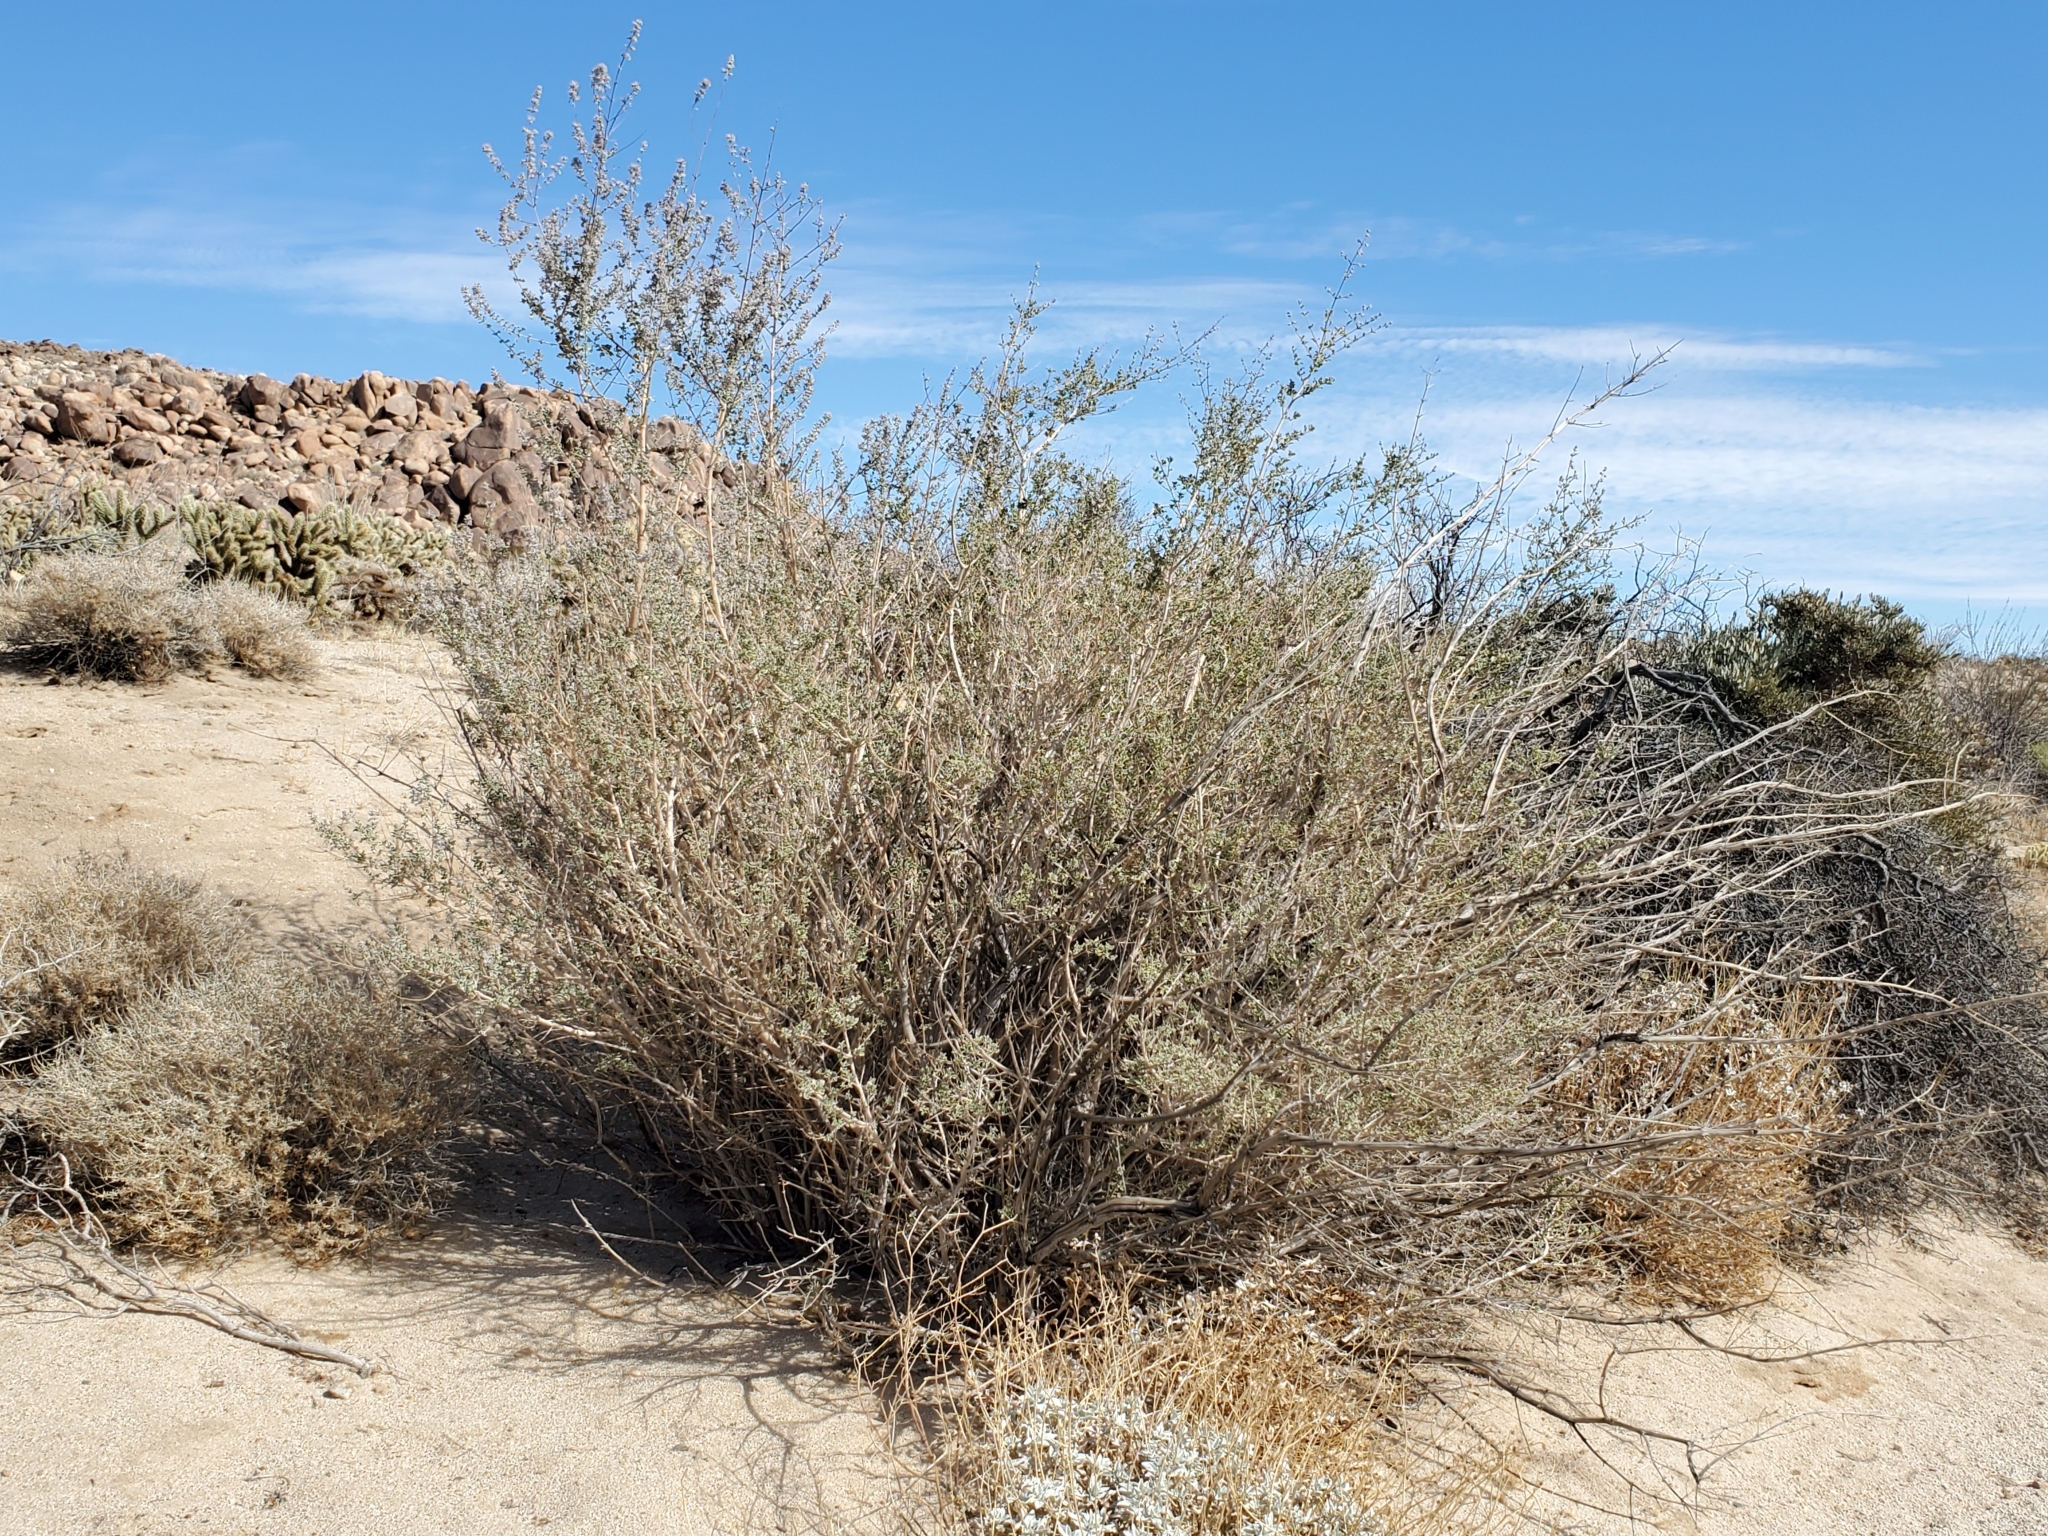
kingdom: Plantae
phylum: Tracheophyta
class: Magnoliopsida
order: Lamiales
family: Lamiaceae
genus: Condea
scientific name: Condea emoryi
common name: Chia
